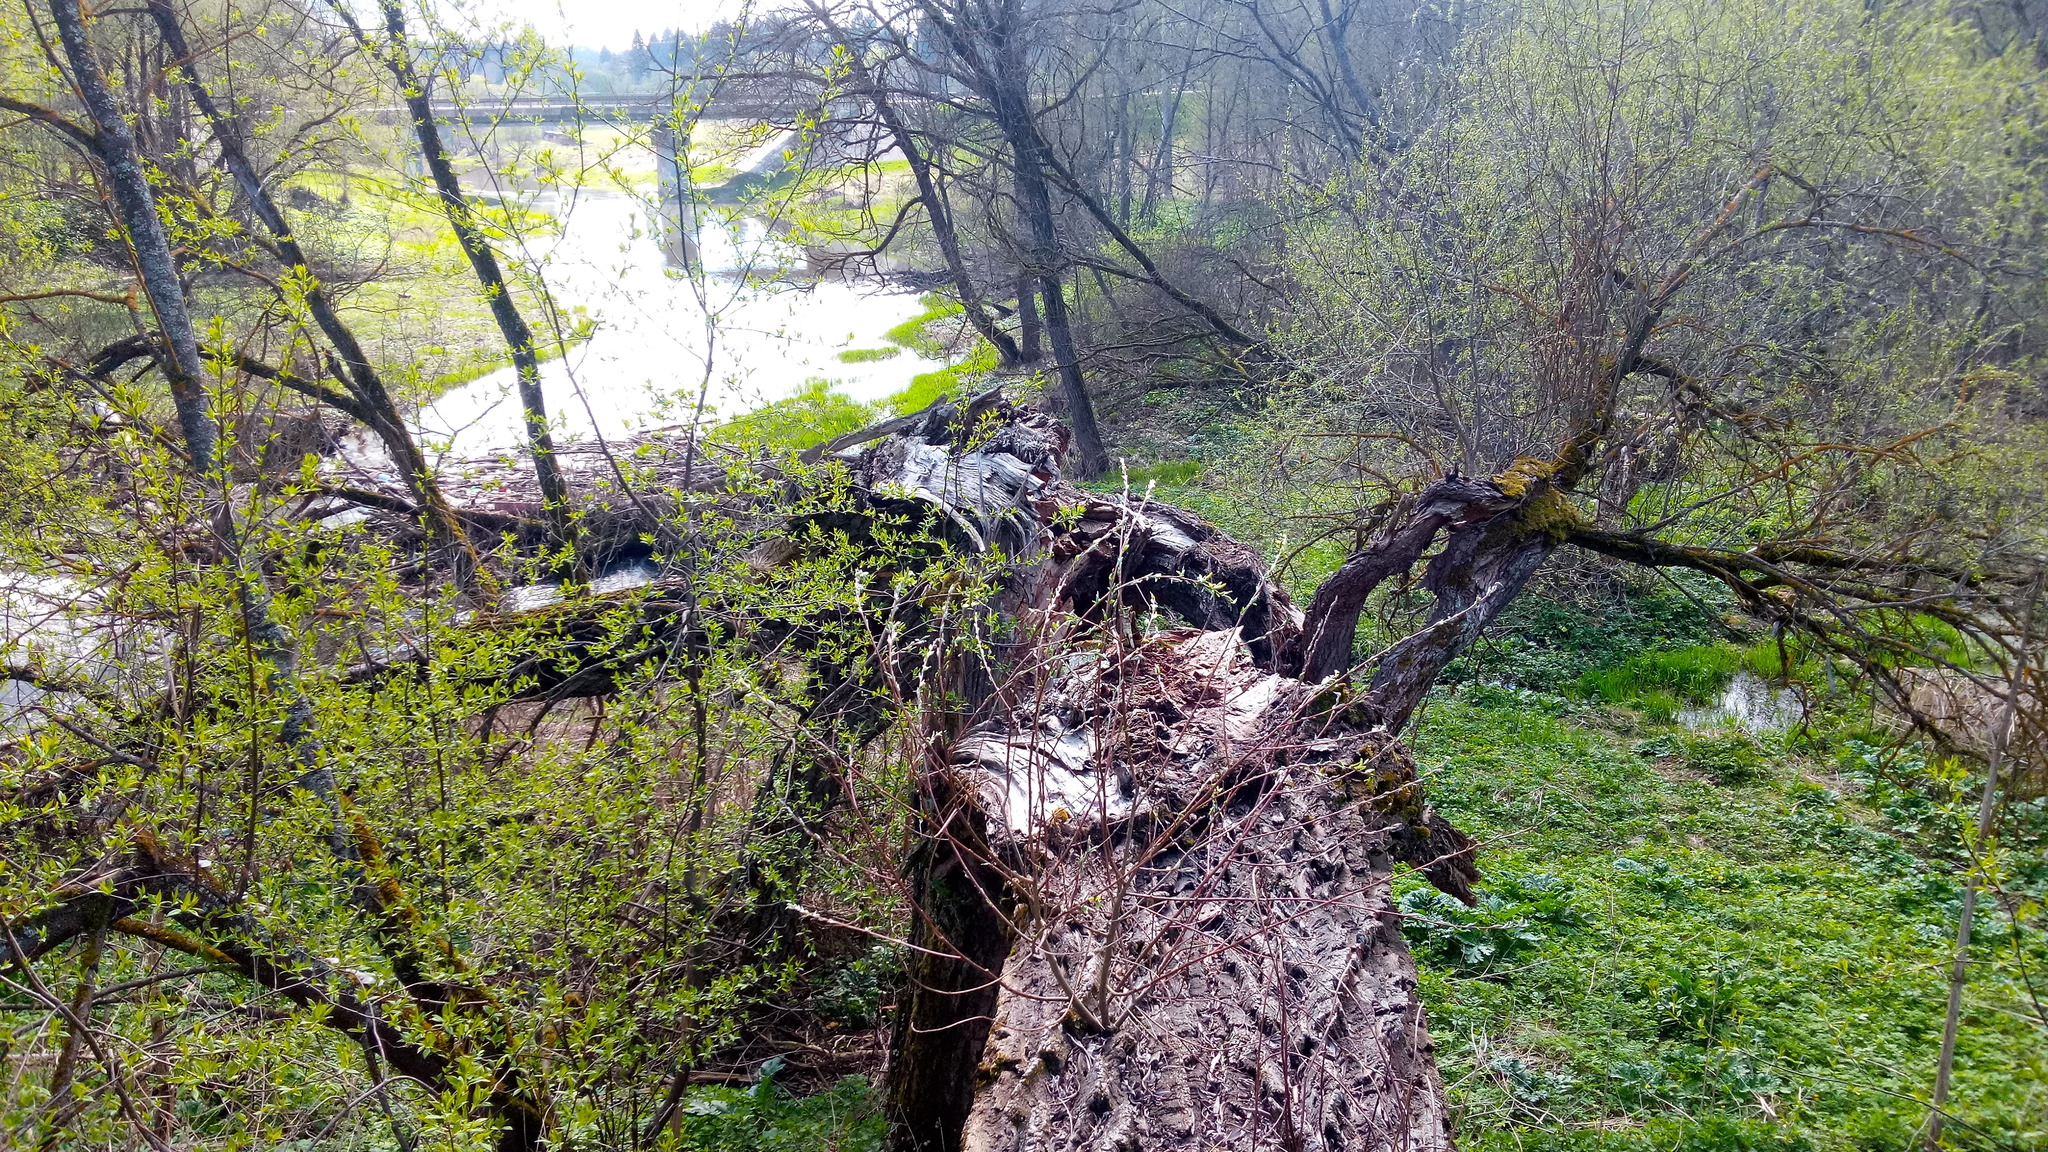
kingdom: Plantae
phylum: Tracheophyta
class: Magnoliopsida
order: Malpighiales
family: Salicaceae
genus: Salix
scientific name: Salix alba
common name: White willow
